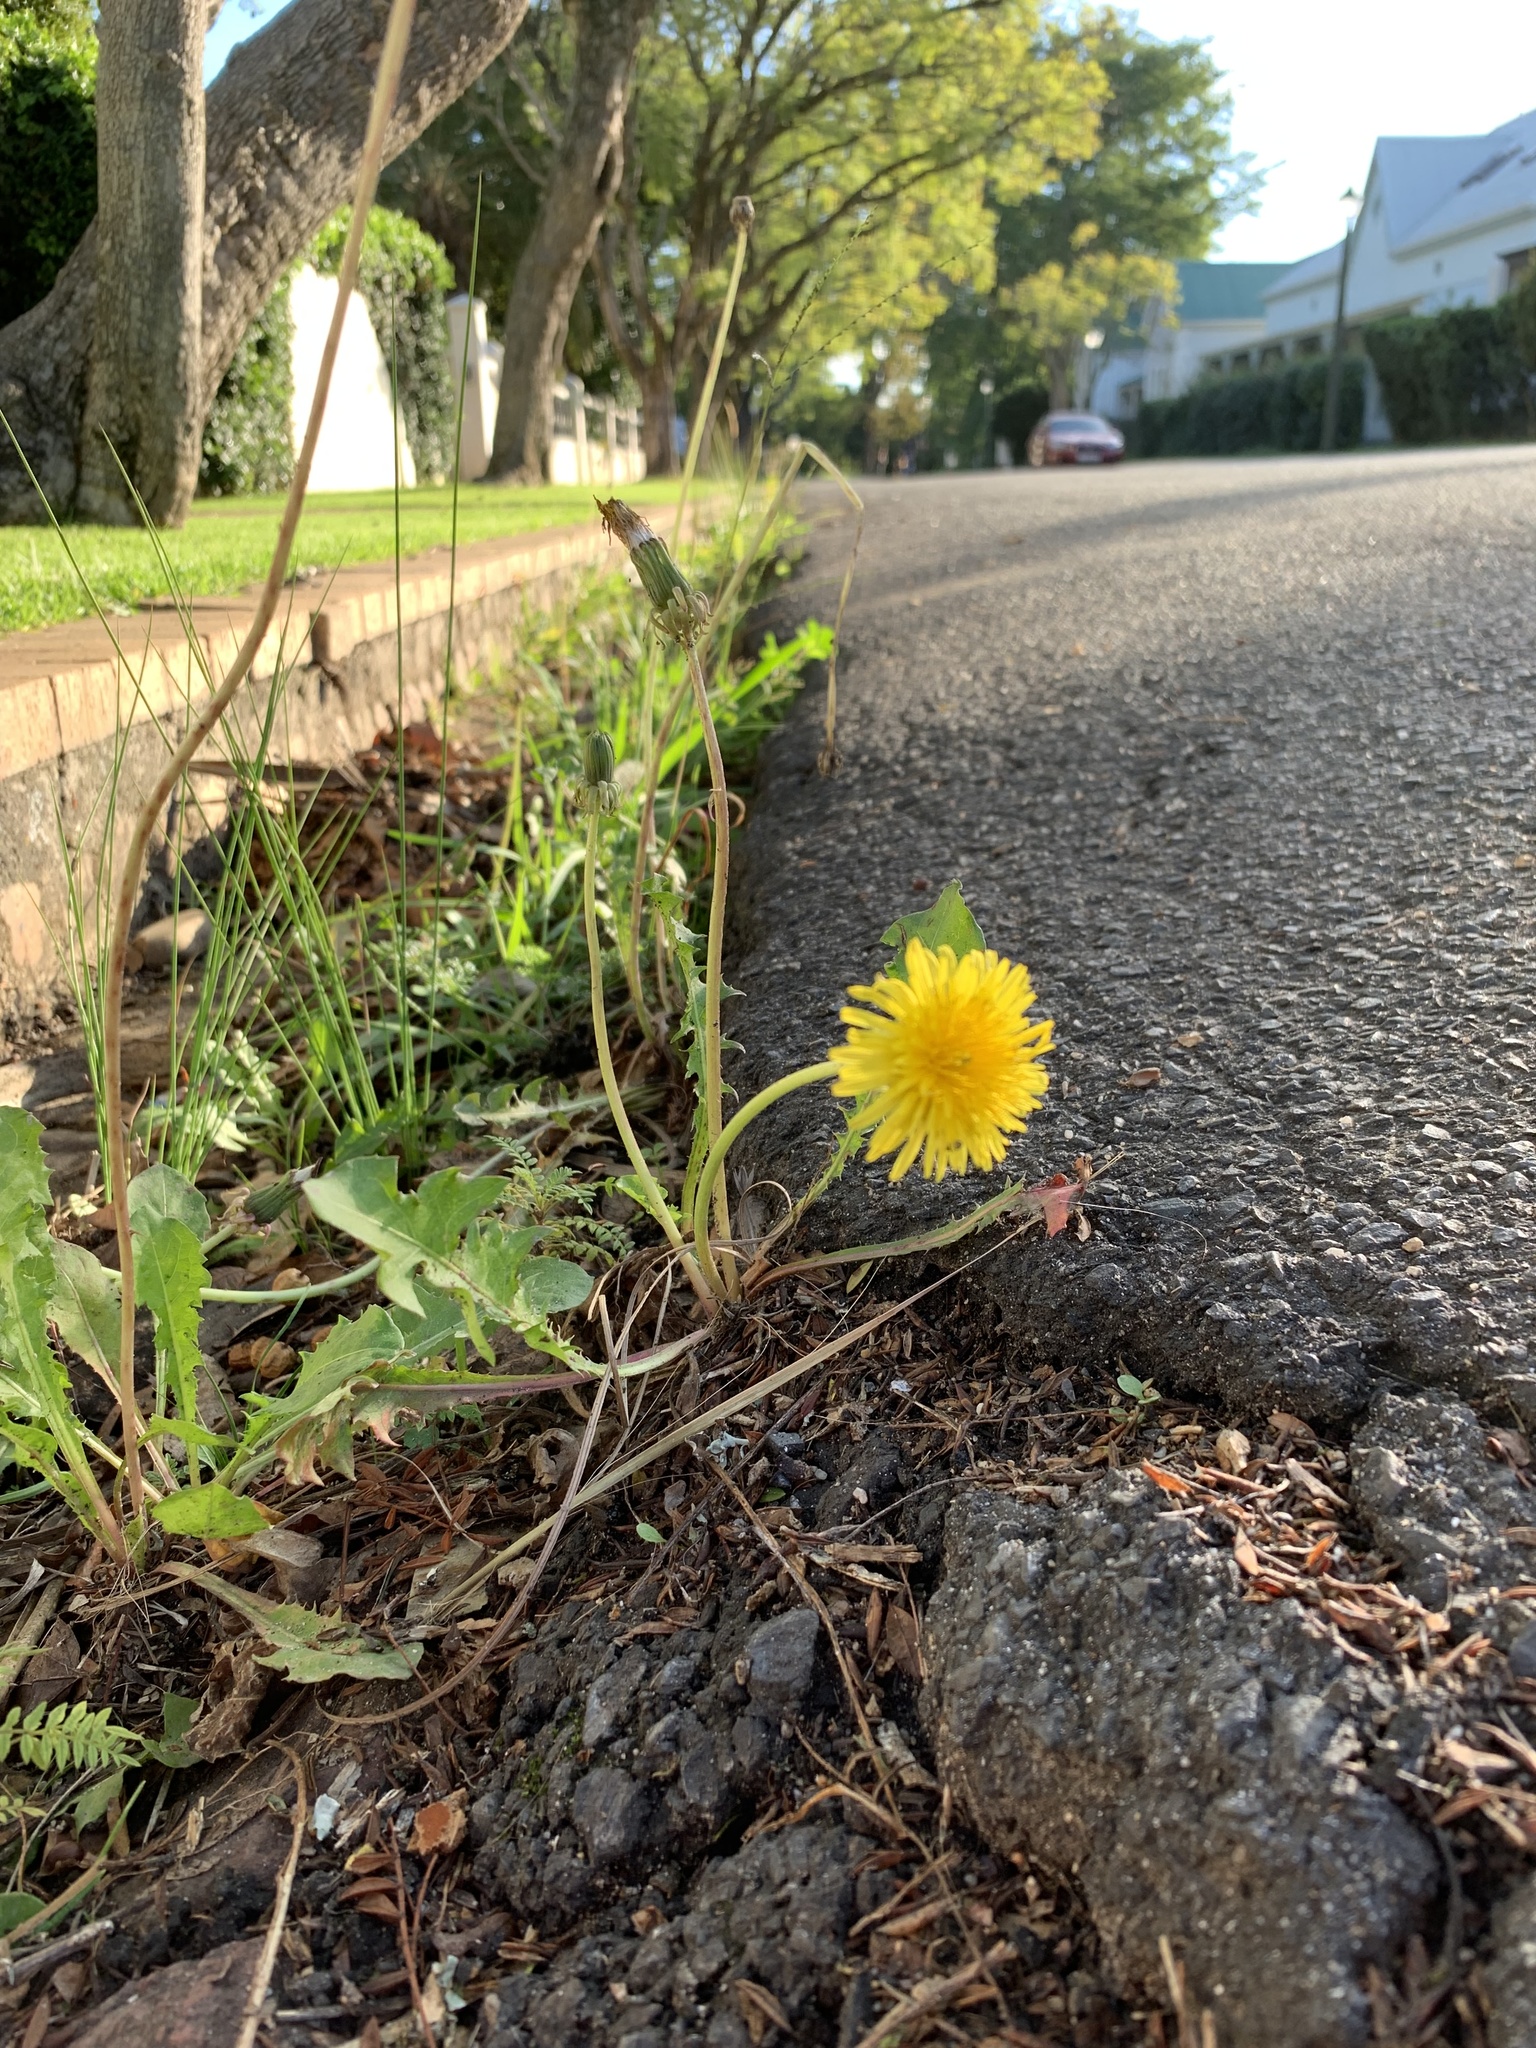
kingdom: Plantae
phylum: Tracheophyta
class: Magnoliopsida
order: Asterales
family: Asteraceae
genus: Taraxacum
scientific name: Taraxacum officinale
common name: Common dandelion
